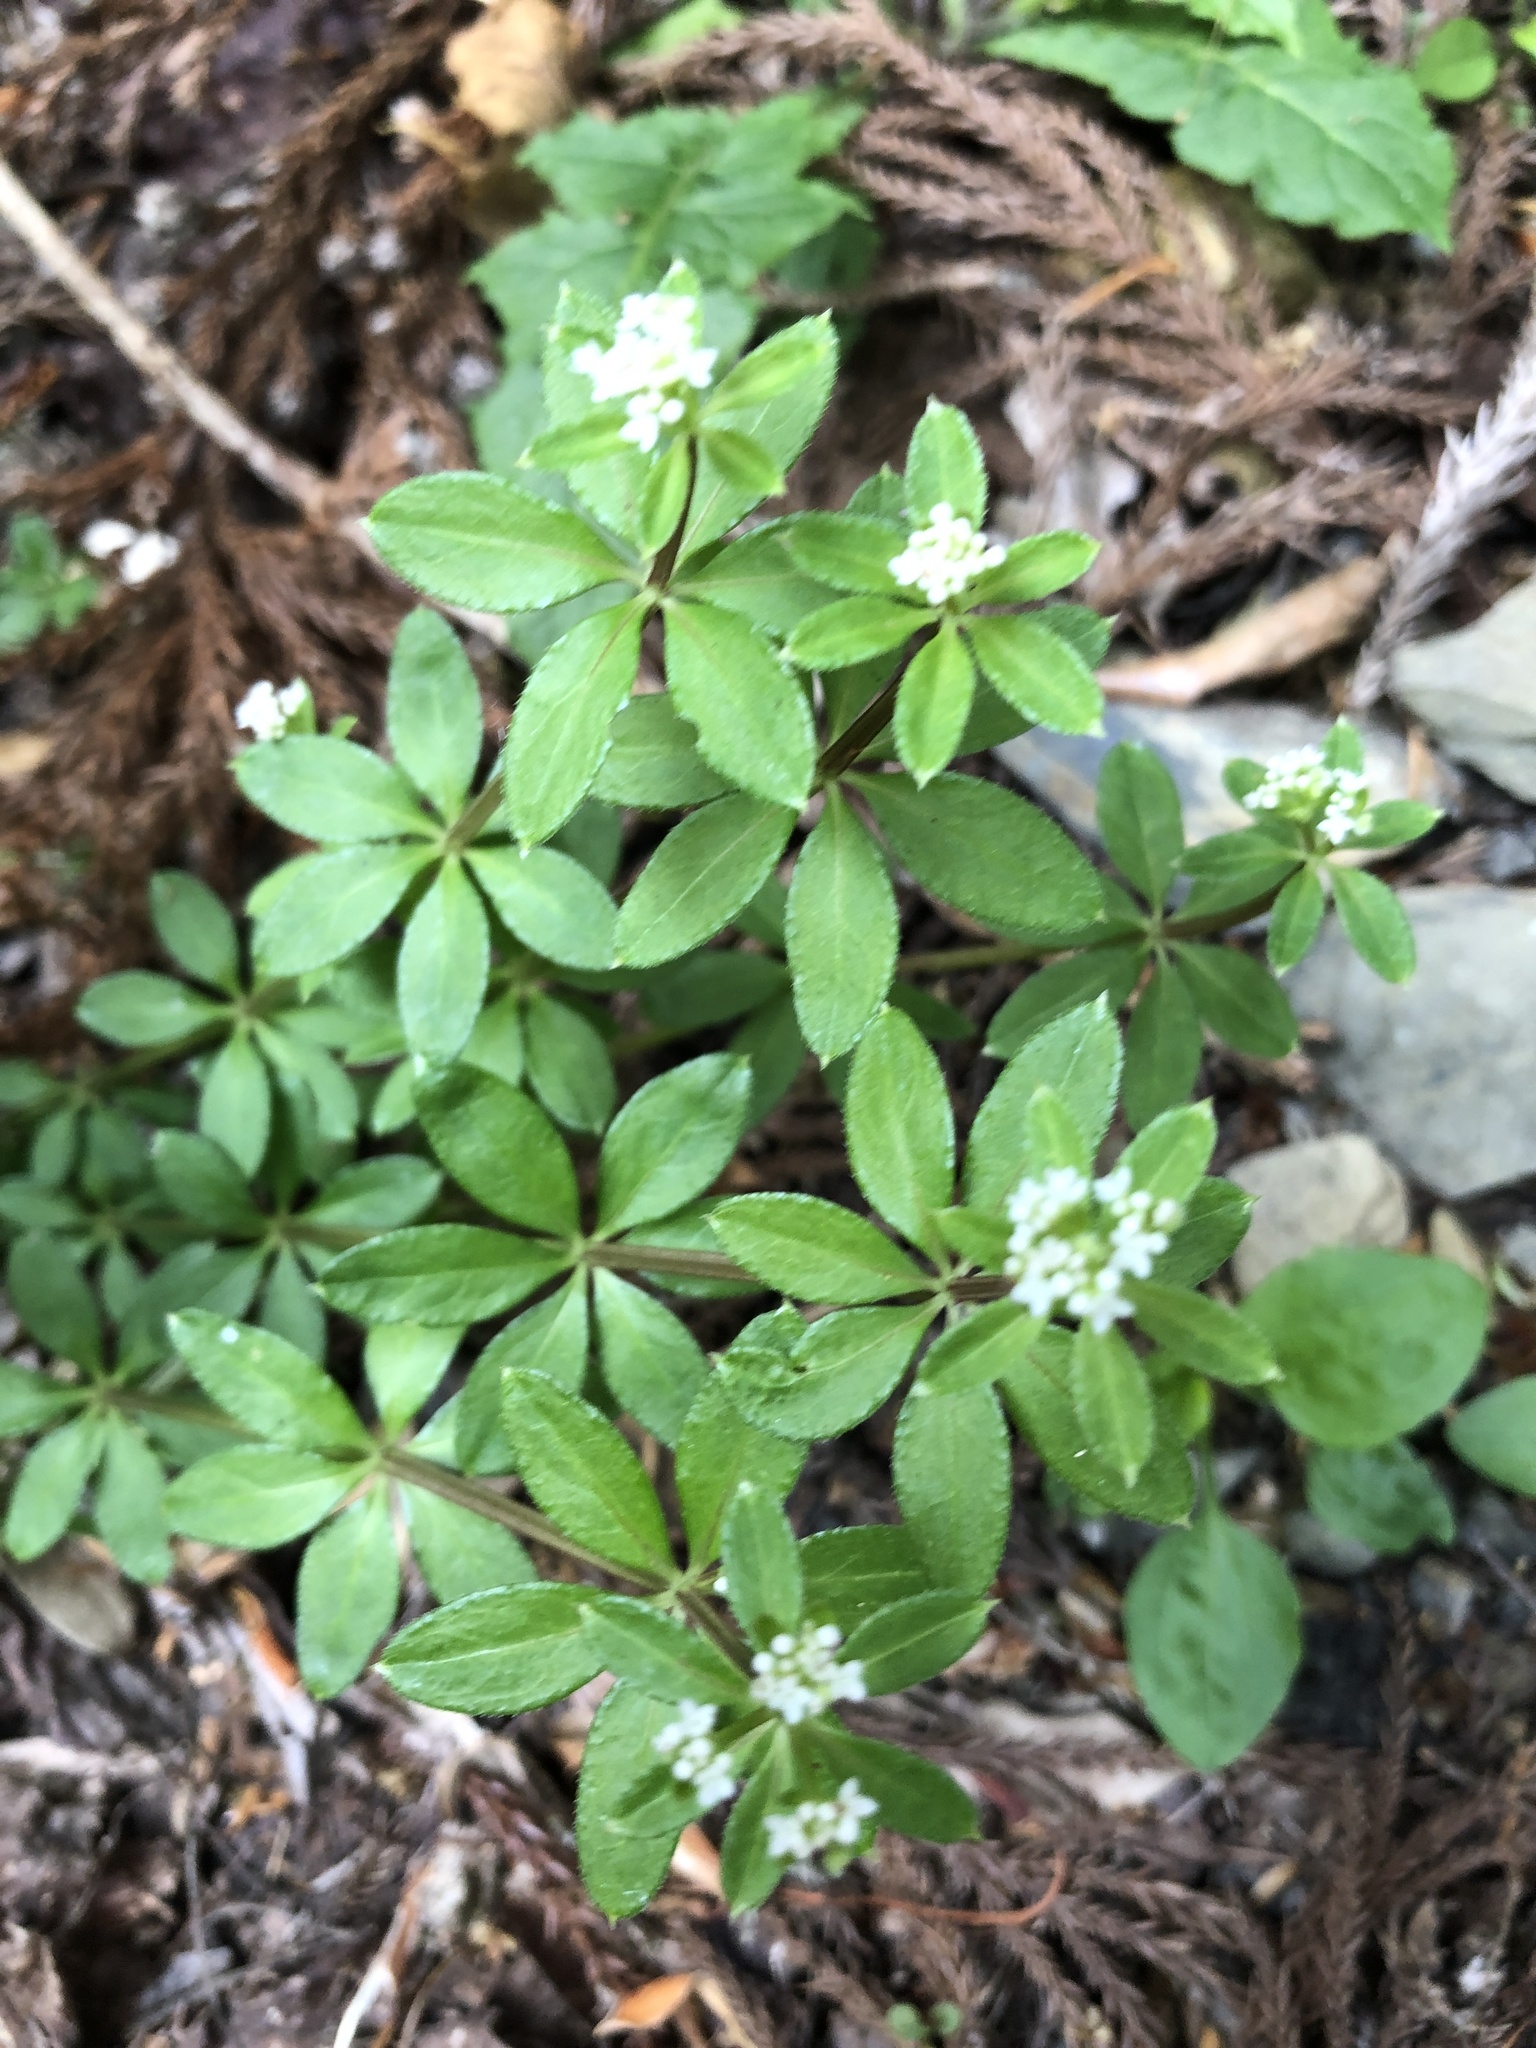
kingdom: Plantae
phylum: Tracheophyta
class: Magnoliopsida
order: Gentianales
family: Rubiaceae
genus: Galium
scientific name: Galium echinocarpum
